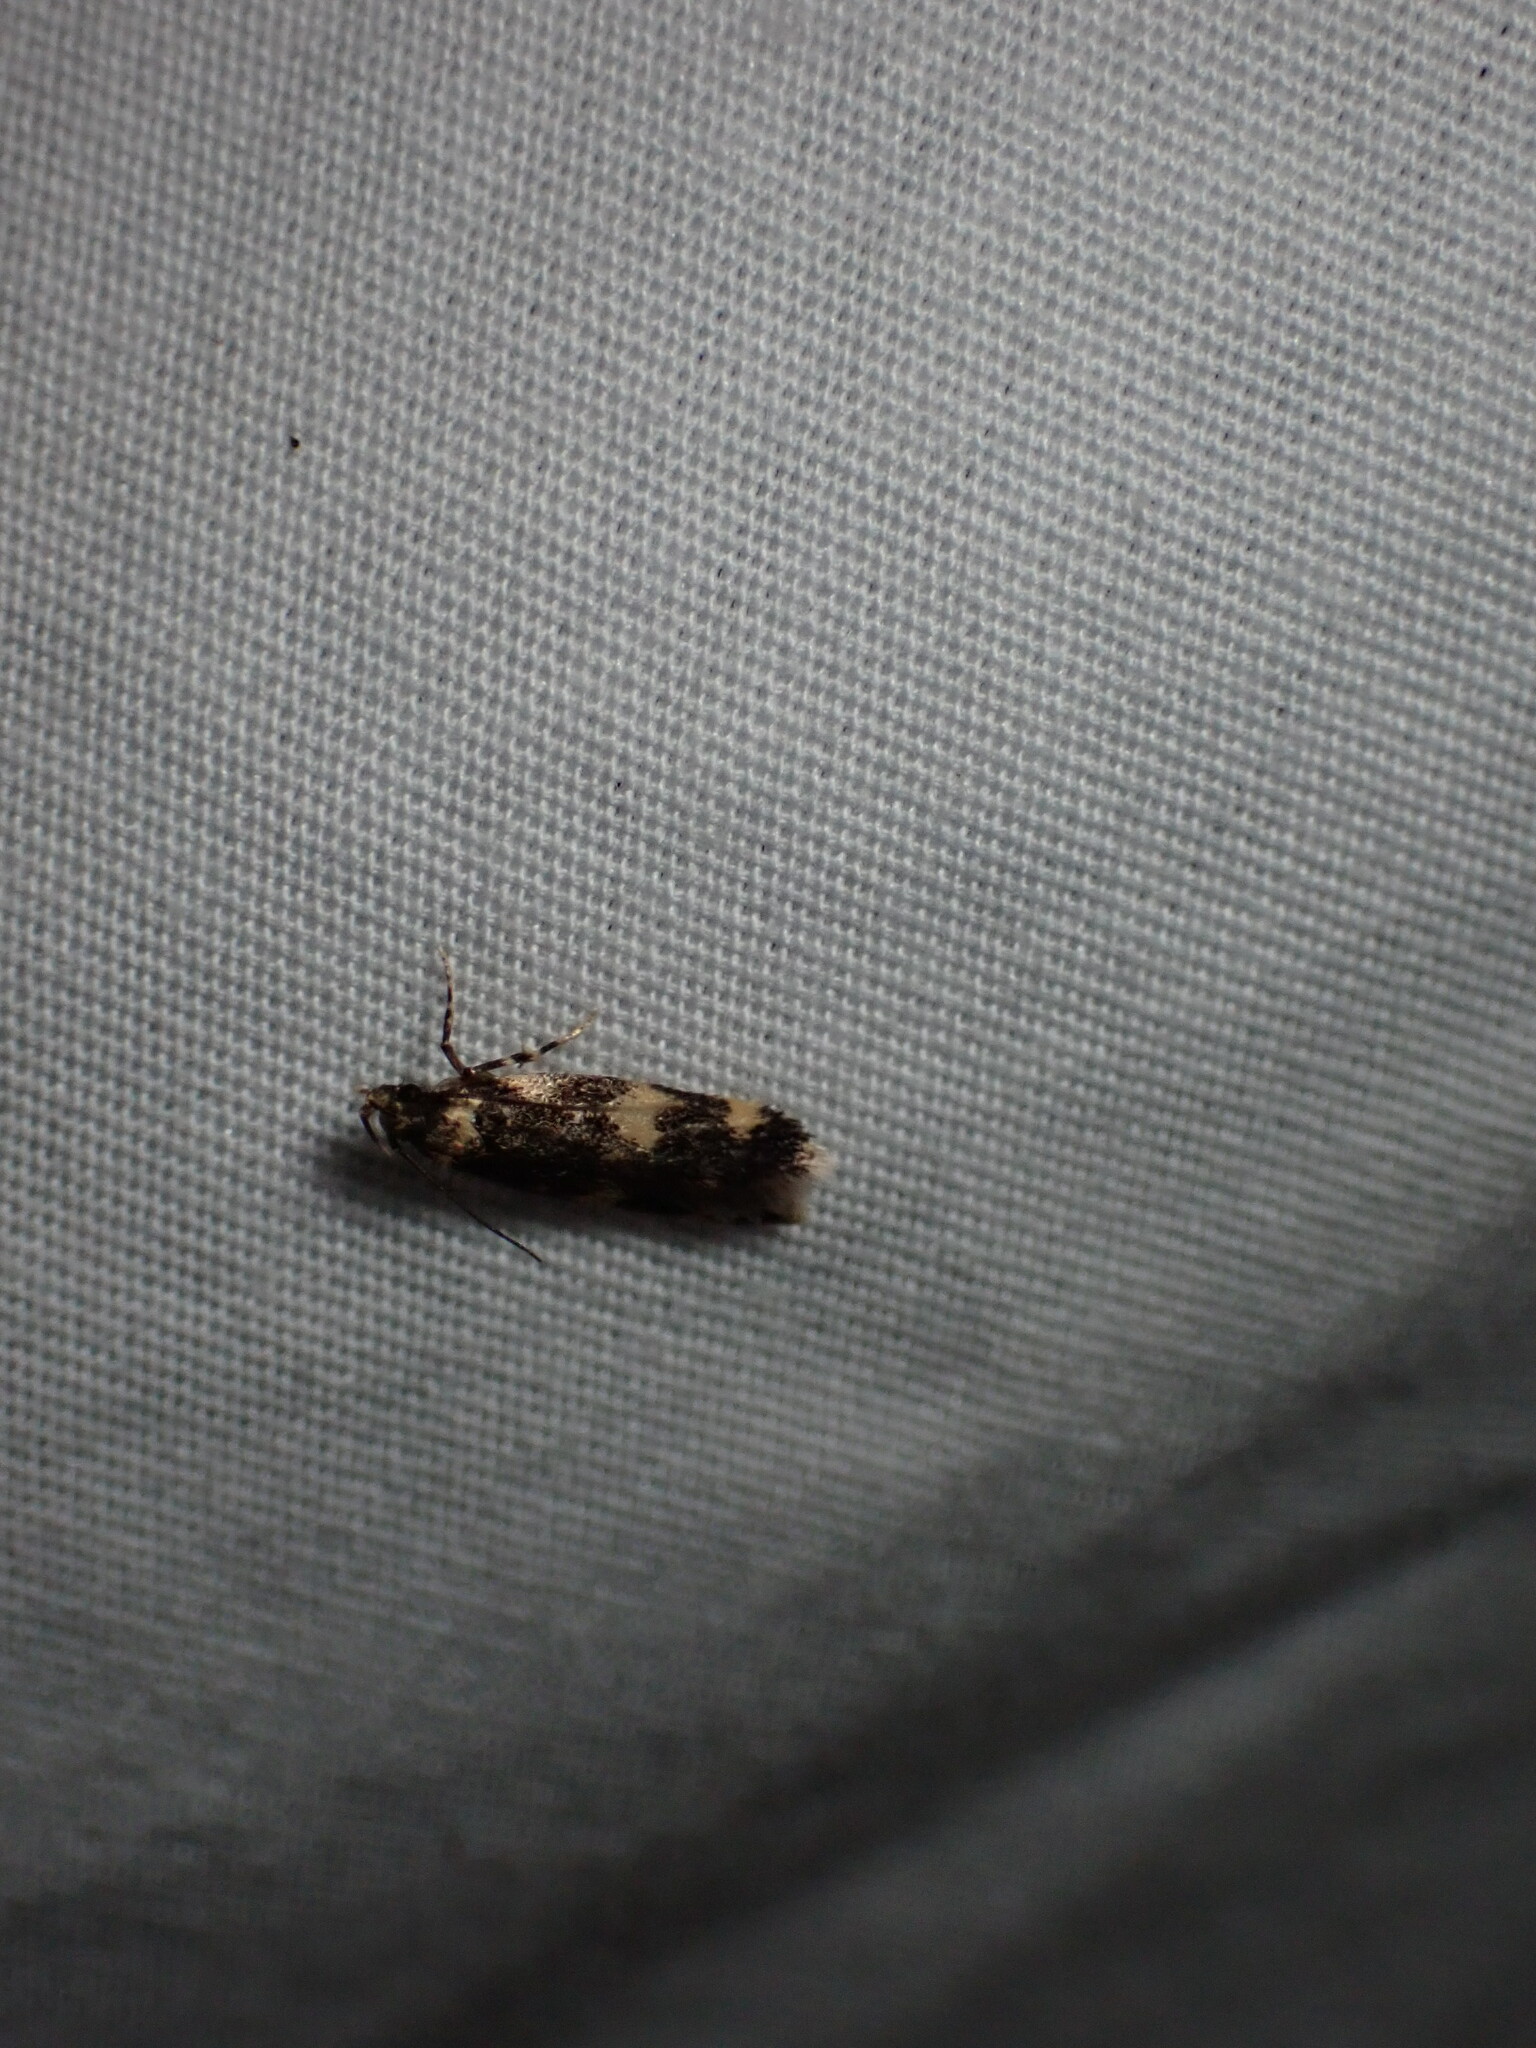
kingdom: Animalia
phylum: Arthropoda
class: Insecta
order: Lepidoptera
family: Autostichidae
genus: Oegoconia
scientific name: Oegoconia quadripuncta
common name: Four-spotted obscure
